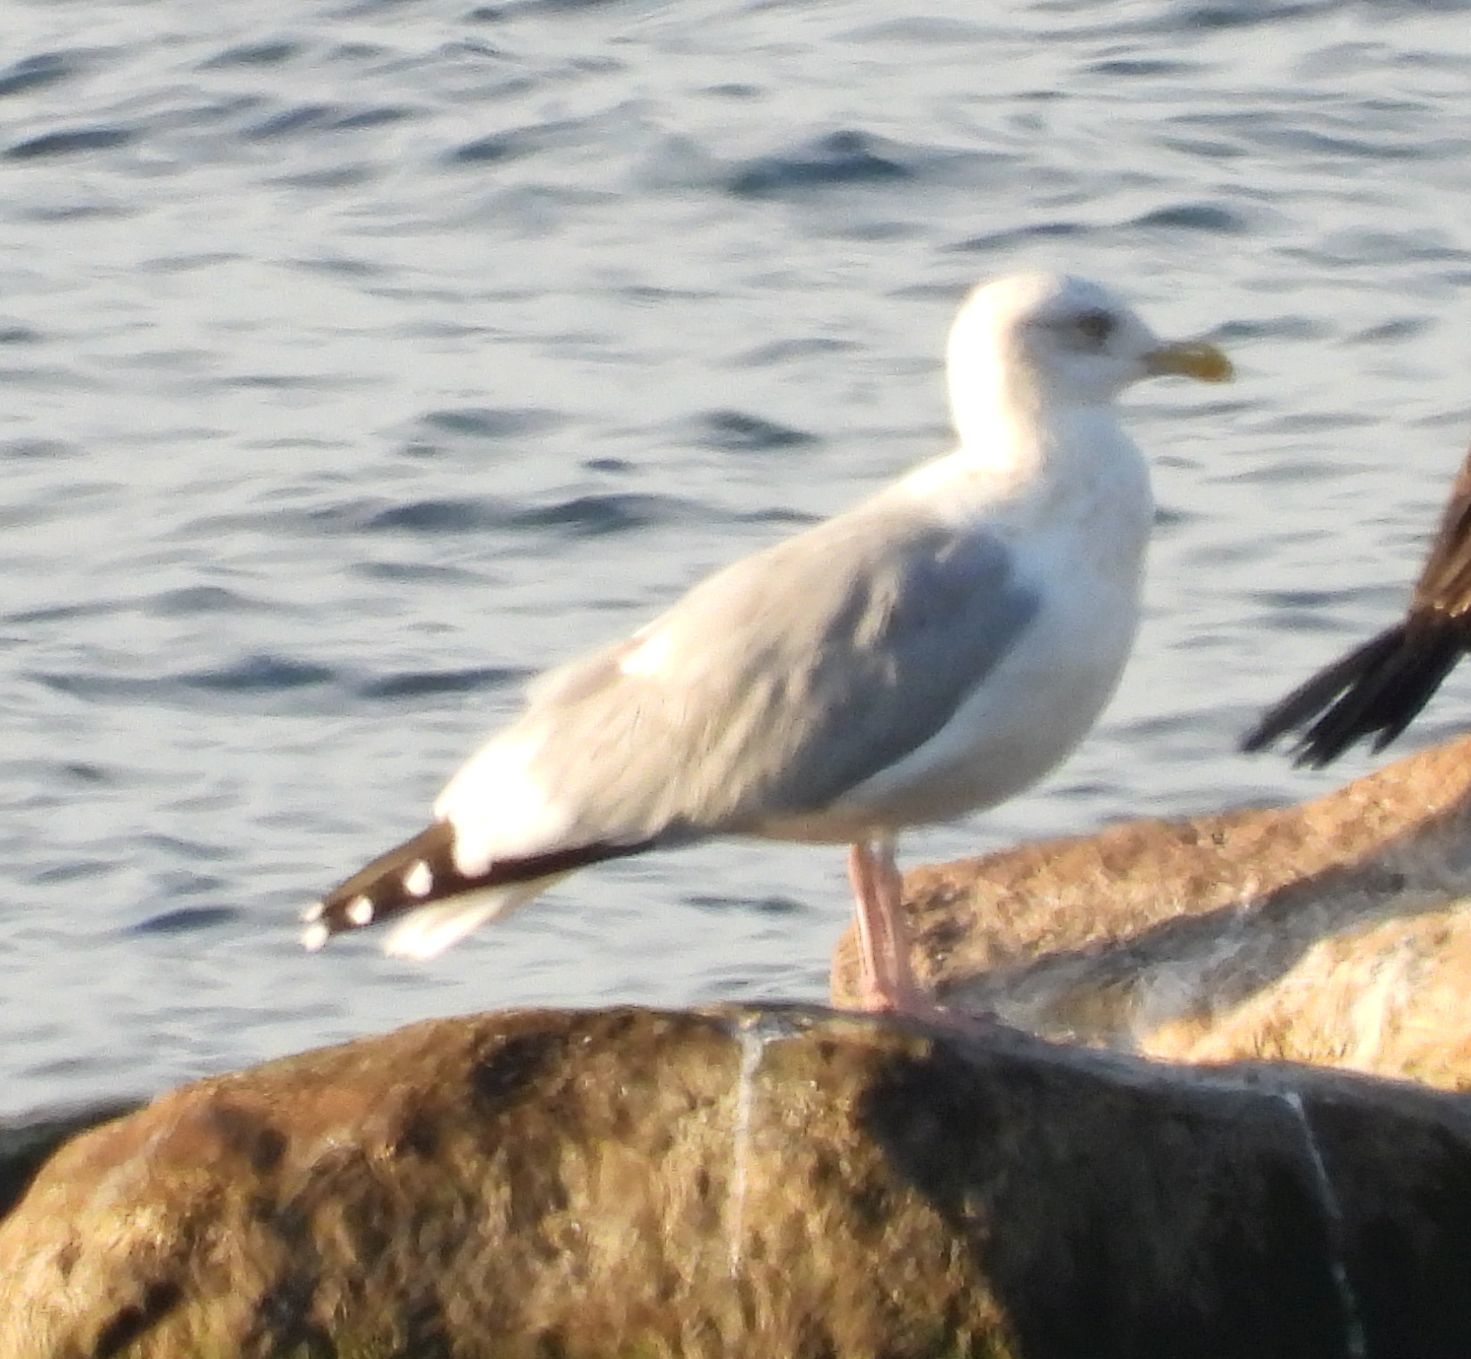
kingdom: Animalia
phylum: Chordata
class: Aves
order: Charadriiformes
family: Laridae
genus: Larus
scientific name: Larus argentatus
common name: Herring gull
